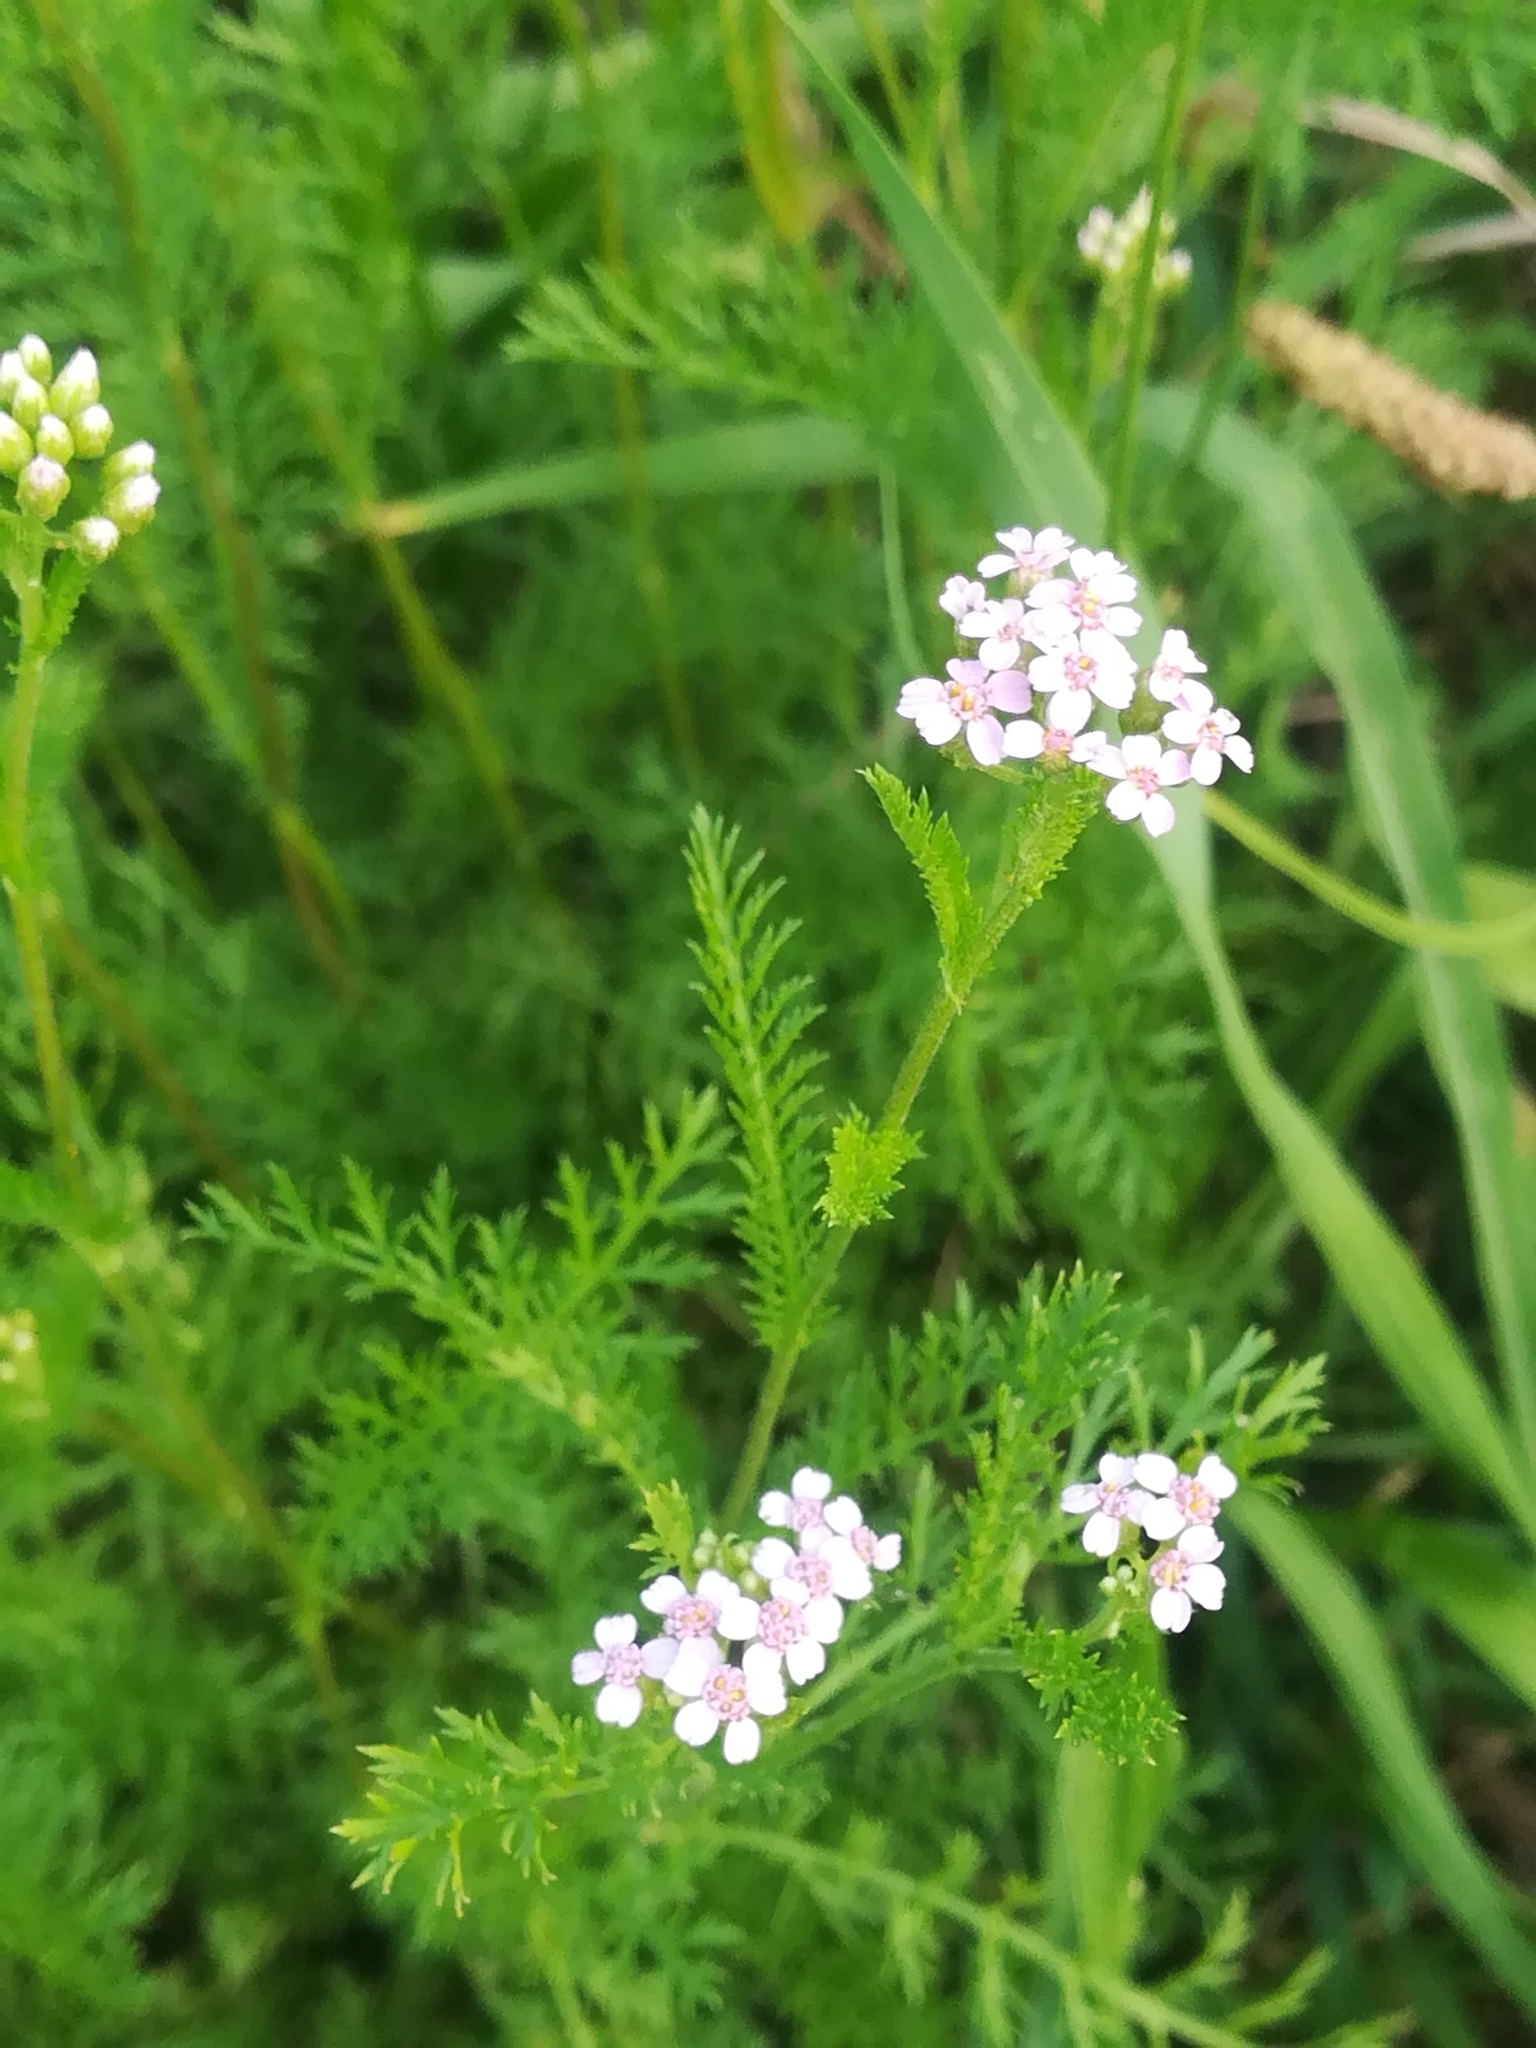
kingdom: Plantae
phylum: Tracheophyta
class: Magnoliopsida
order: Asterales
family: Asteraceae
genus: Achillea
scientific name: Achillea millefolium
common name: Yarrow
